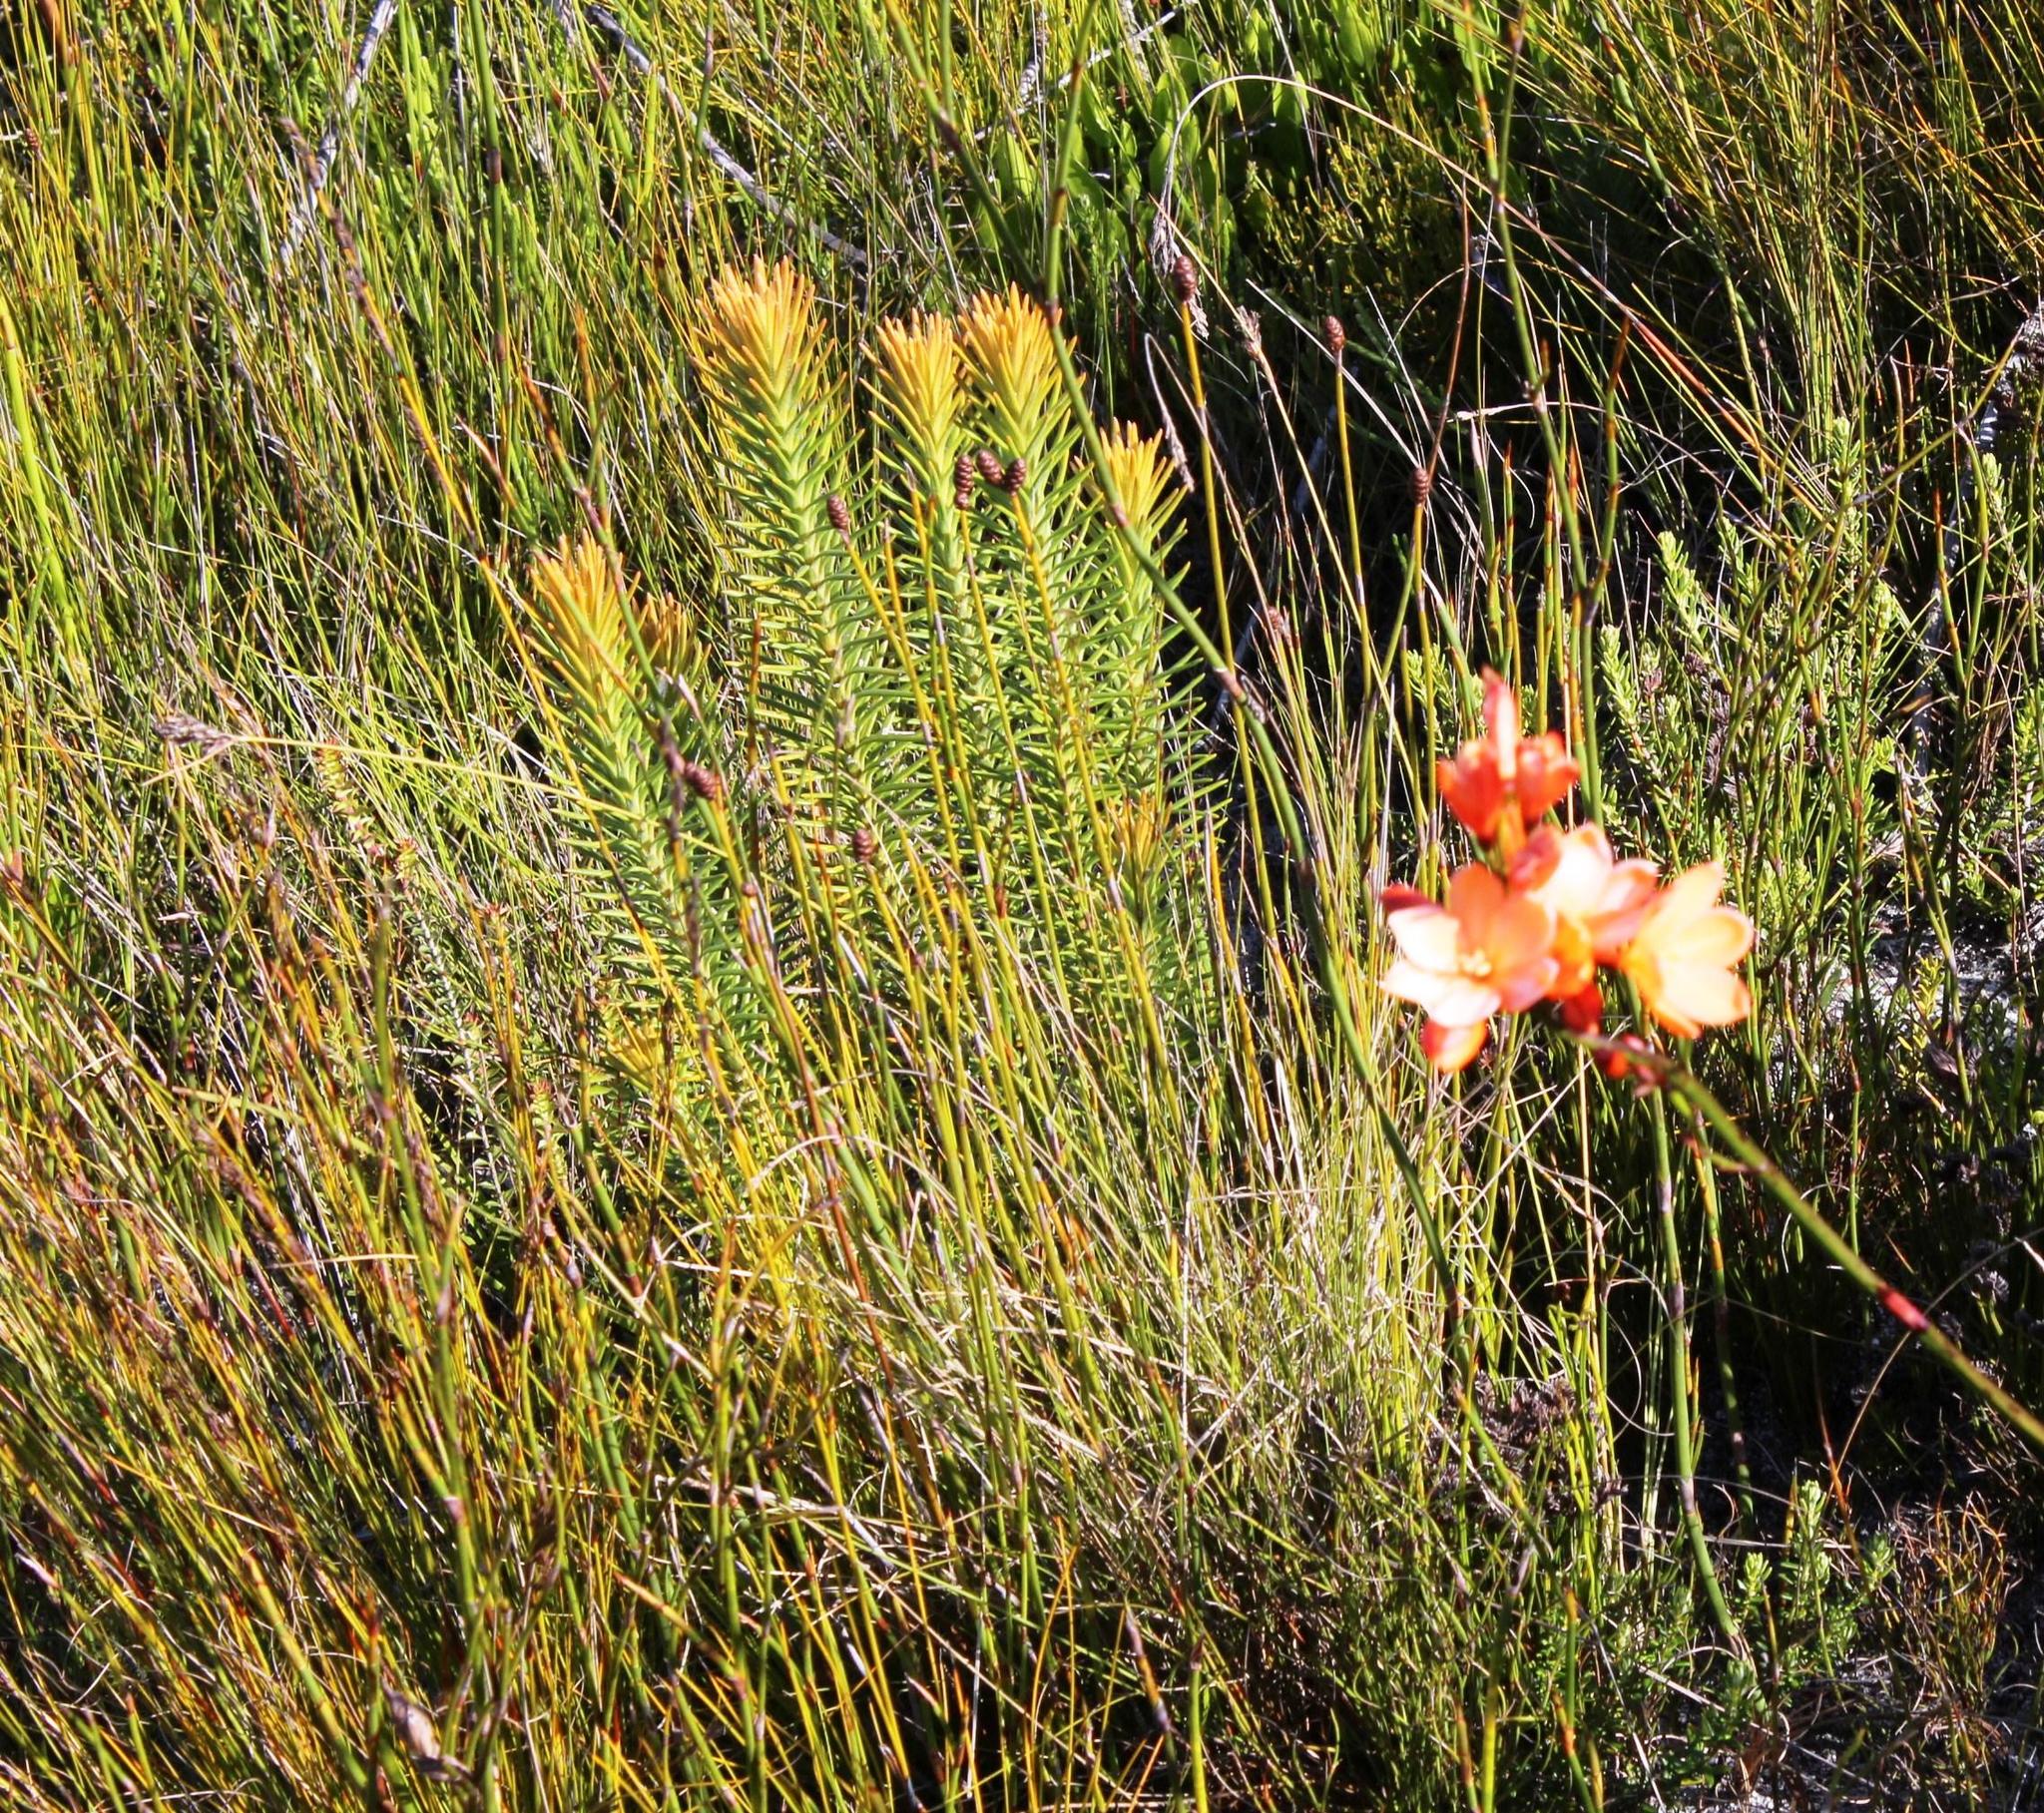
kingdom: Plantae
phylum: Tracheophyta
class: Magnoliopsida
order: Lamiales
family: Stilbaceae
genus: Retzia
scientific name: Retzia capensis
